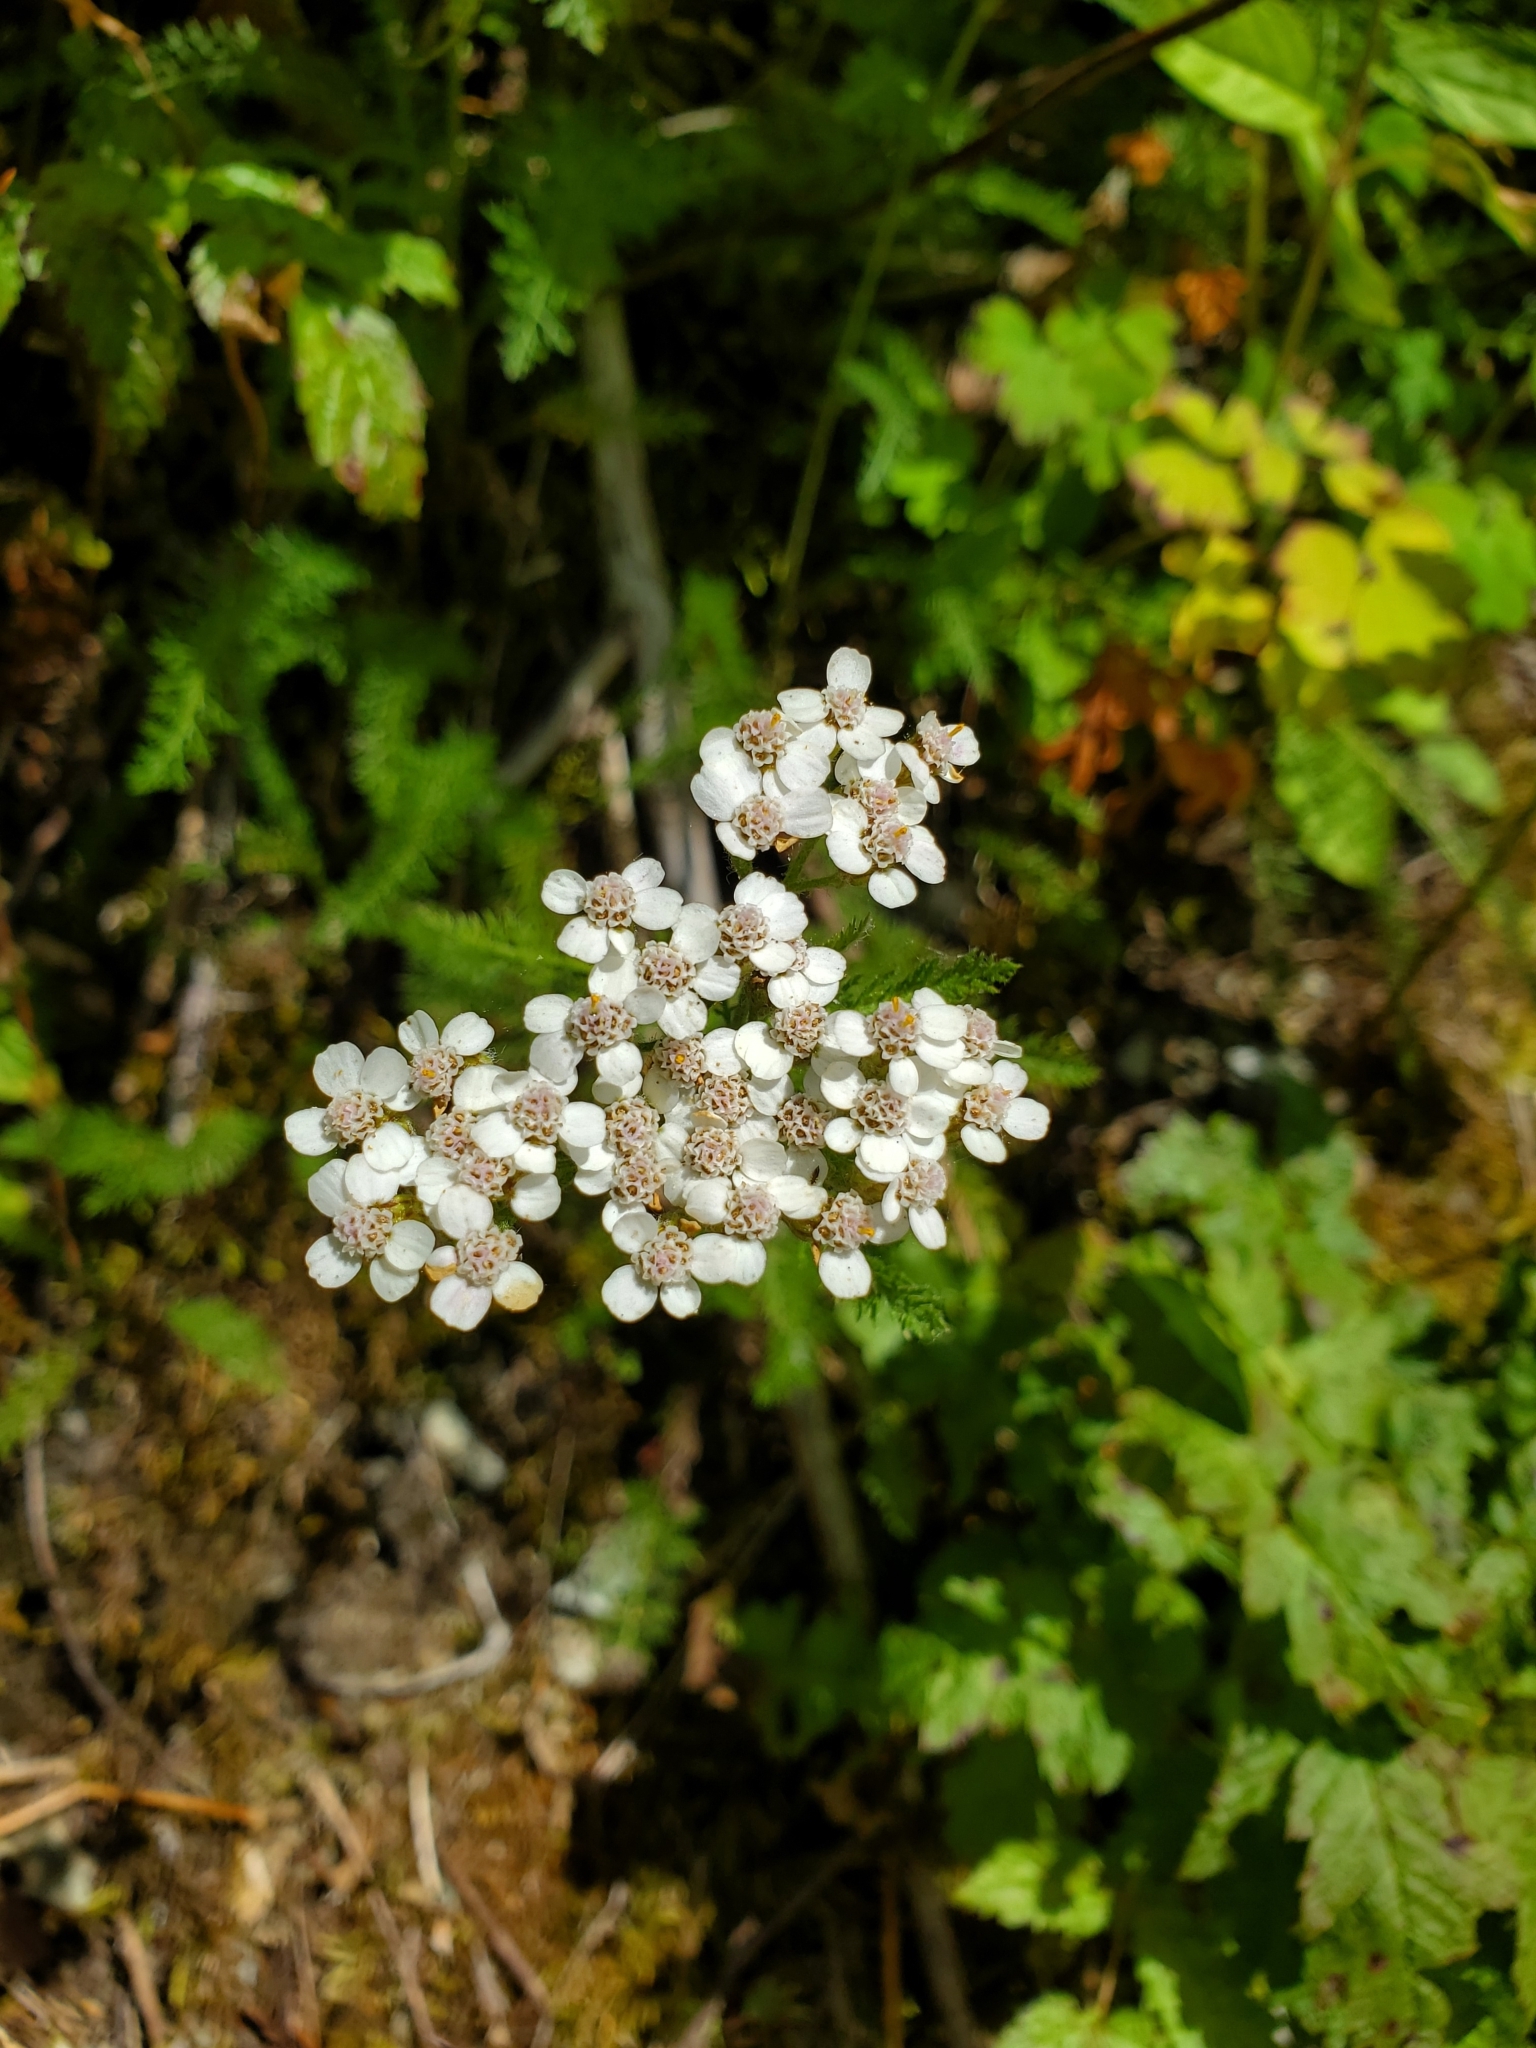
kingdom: Plantae
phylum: Tracheophyta
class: Magnoliopsida
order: Asterales
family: Asteraceae
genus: Achillea
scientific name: Achillea millefolium
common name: Yarrow
